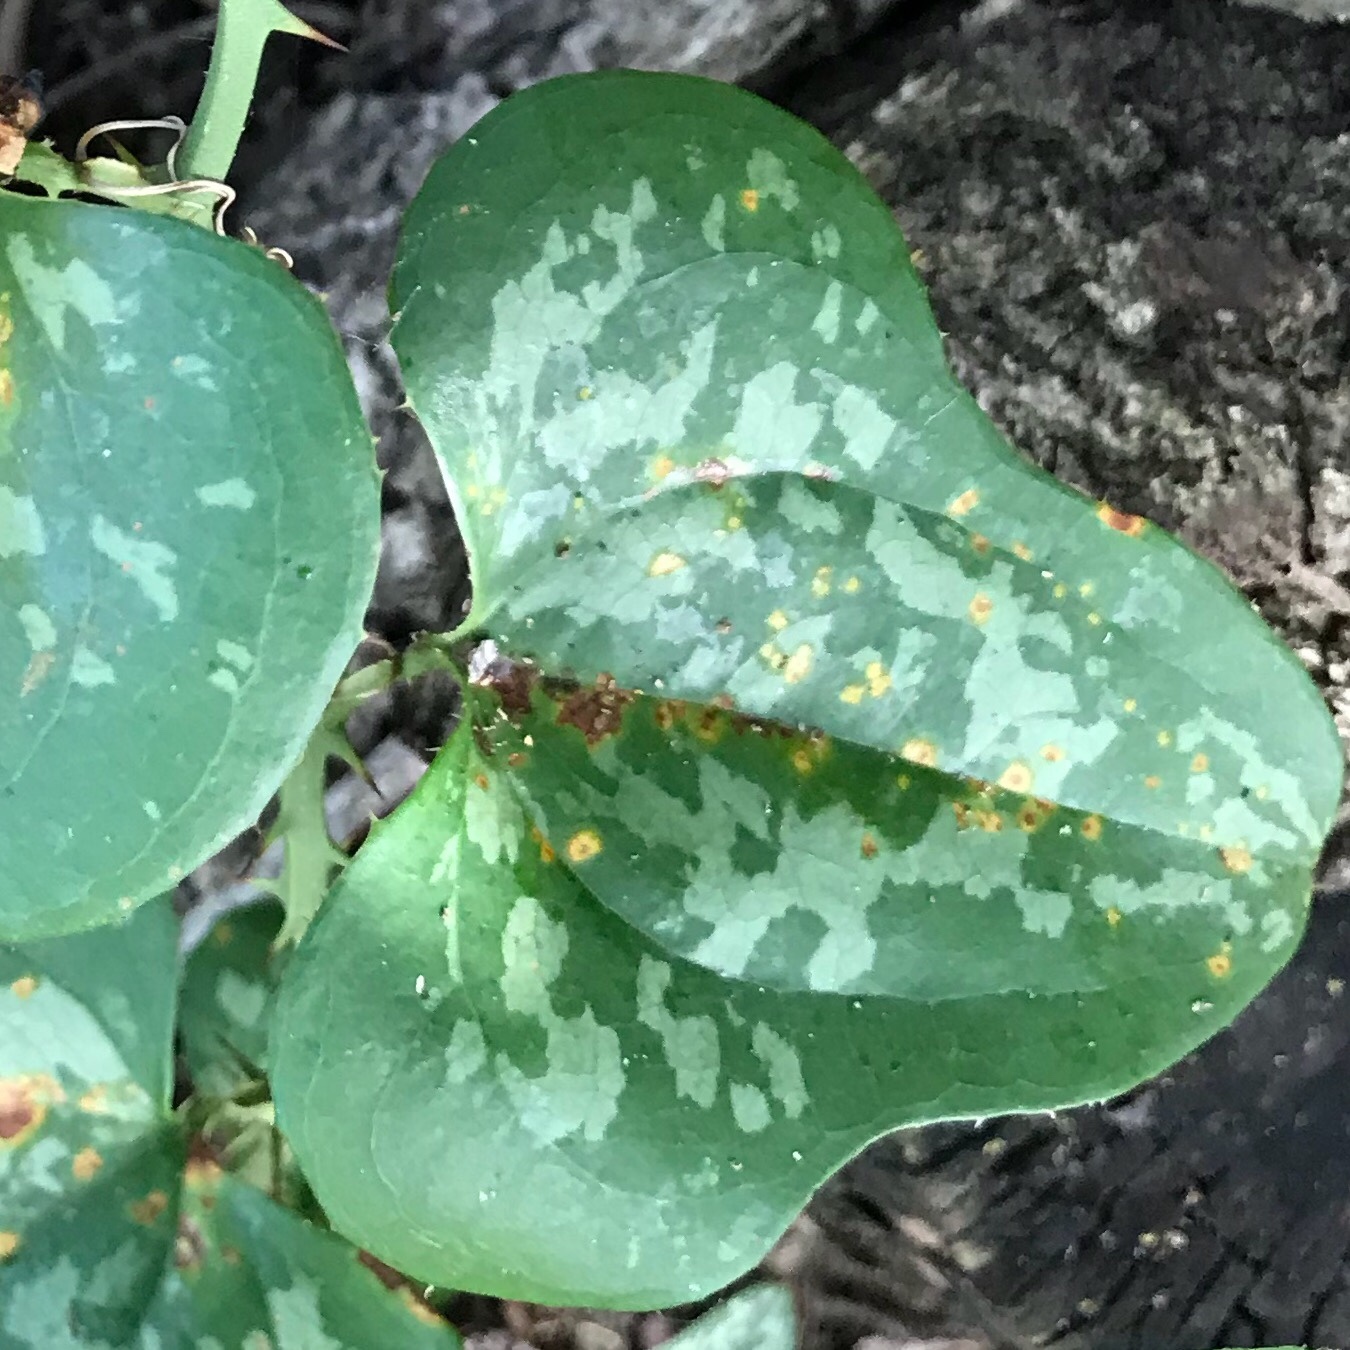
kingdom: Plantae
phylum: Tracheophyta
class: Liliopsida
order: Liliales
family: Smilacaceae
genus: Smilax
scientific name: Smilax bona-nox
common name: Catbrier
